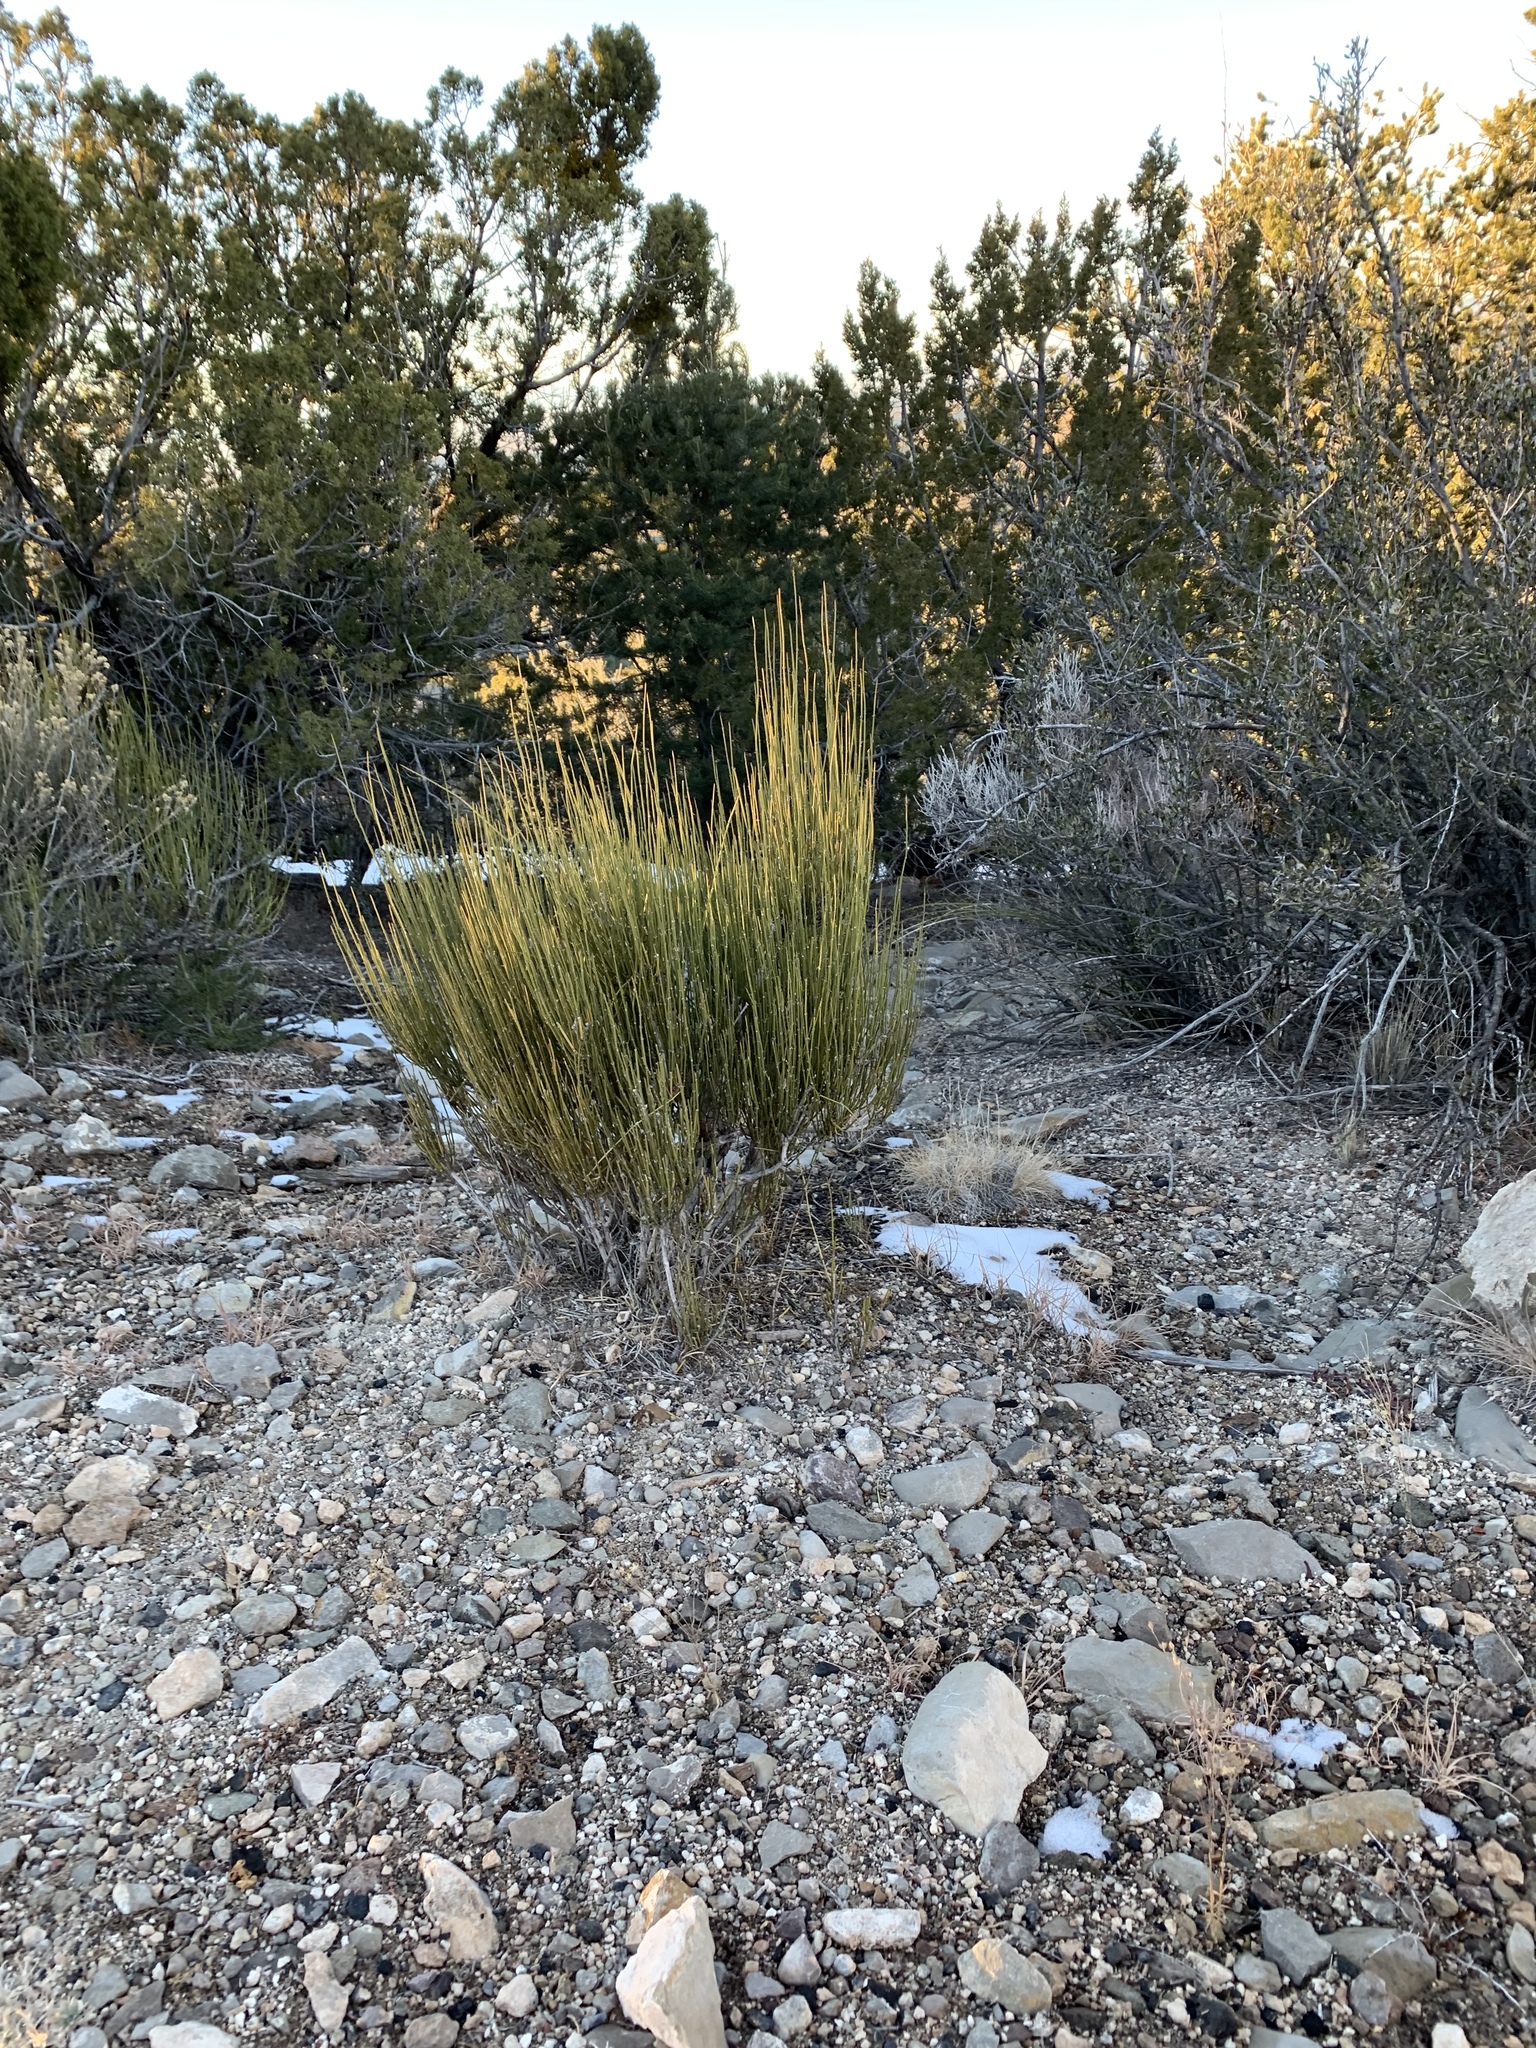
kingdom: Plantae
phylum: Tracheophyta
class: Gnetopsida
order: Ephedrales
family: Ephedraceae
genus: Ephedra
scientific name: Ephedra viridis
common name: Green ephedra
